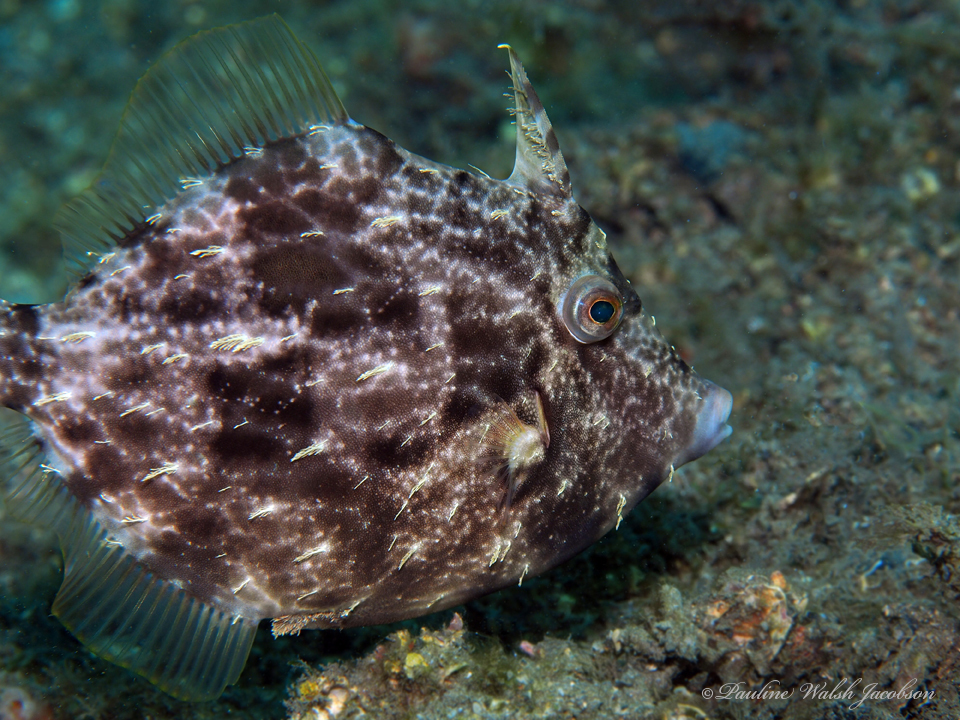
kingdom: Animalia
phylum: Chordata
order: Tetraodontiformes
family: Monacanthidae
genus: Stephanolepis
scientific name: Stephanolepis hispidus
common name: Planehead filefish
